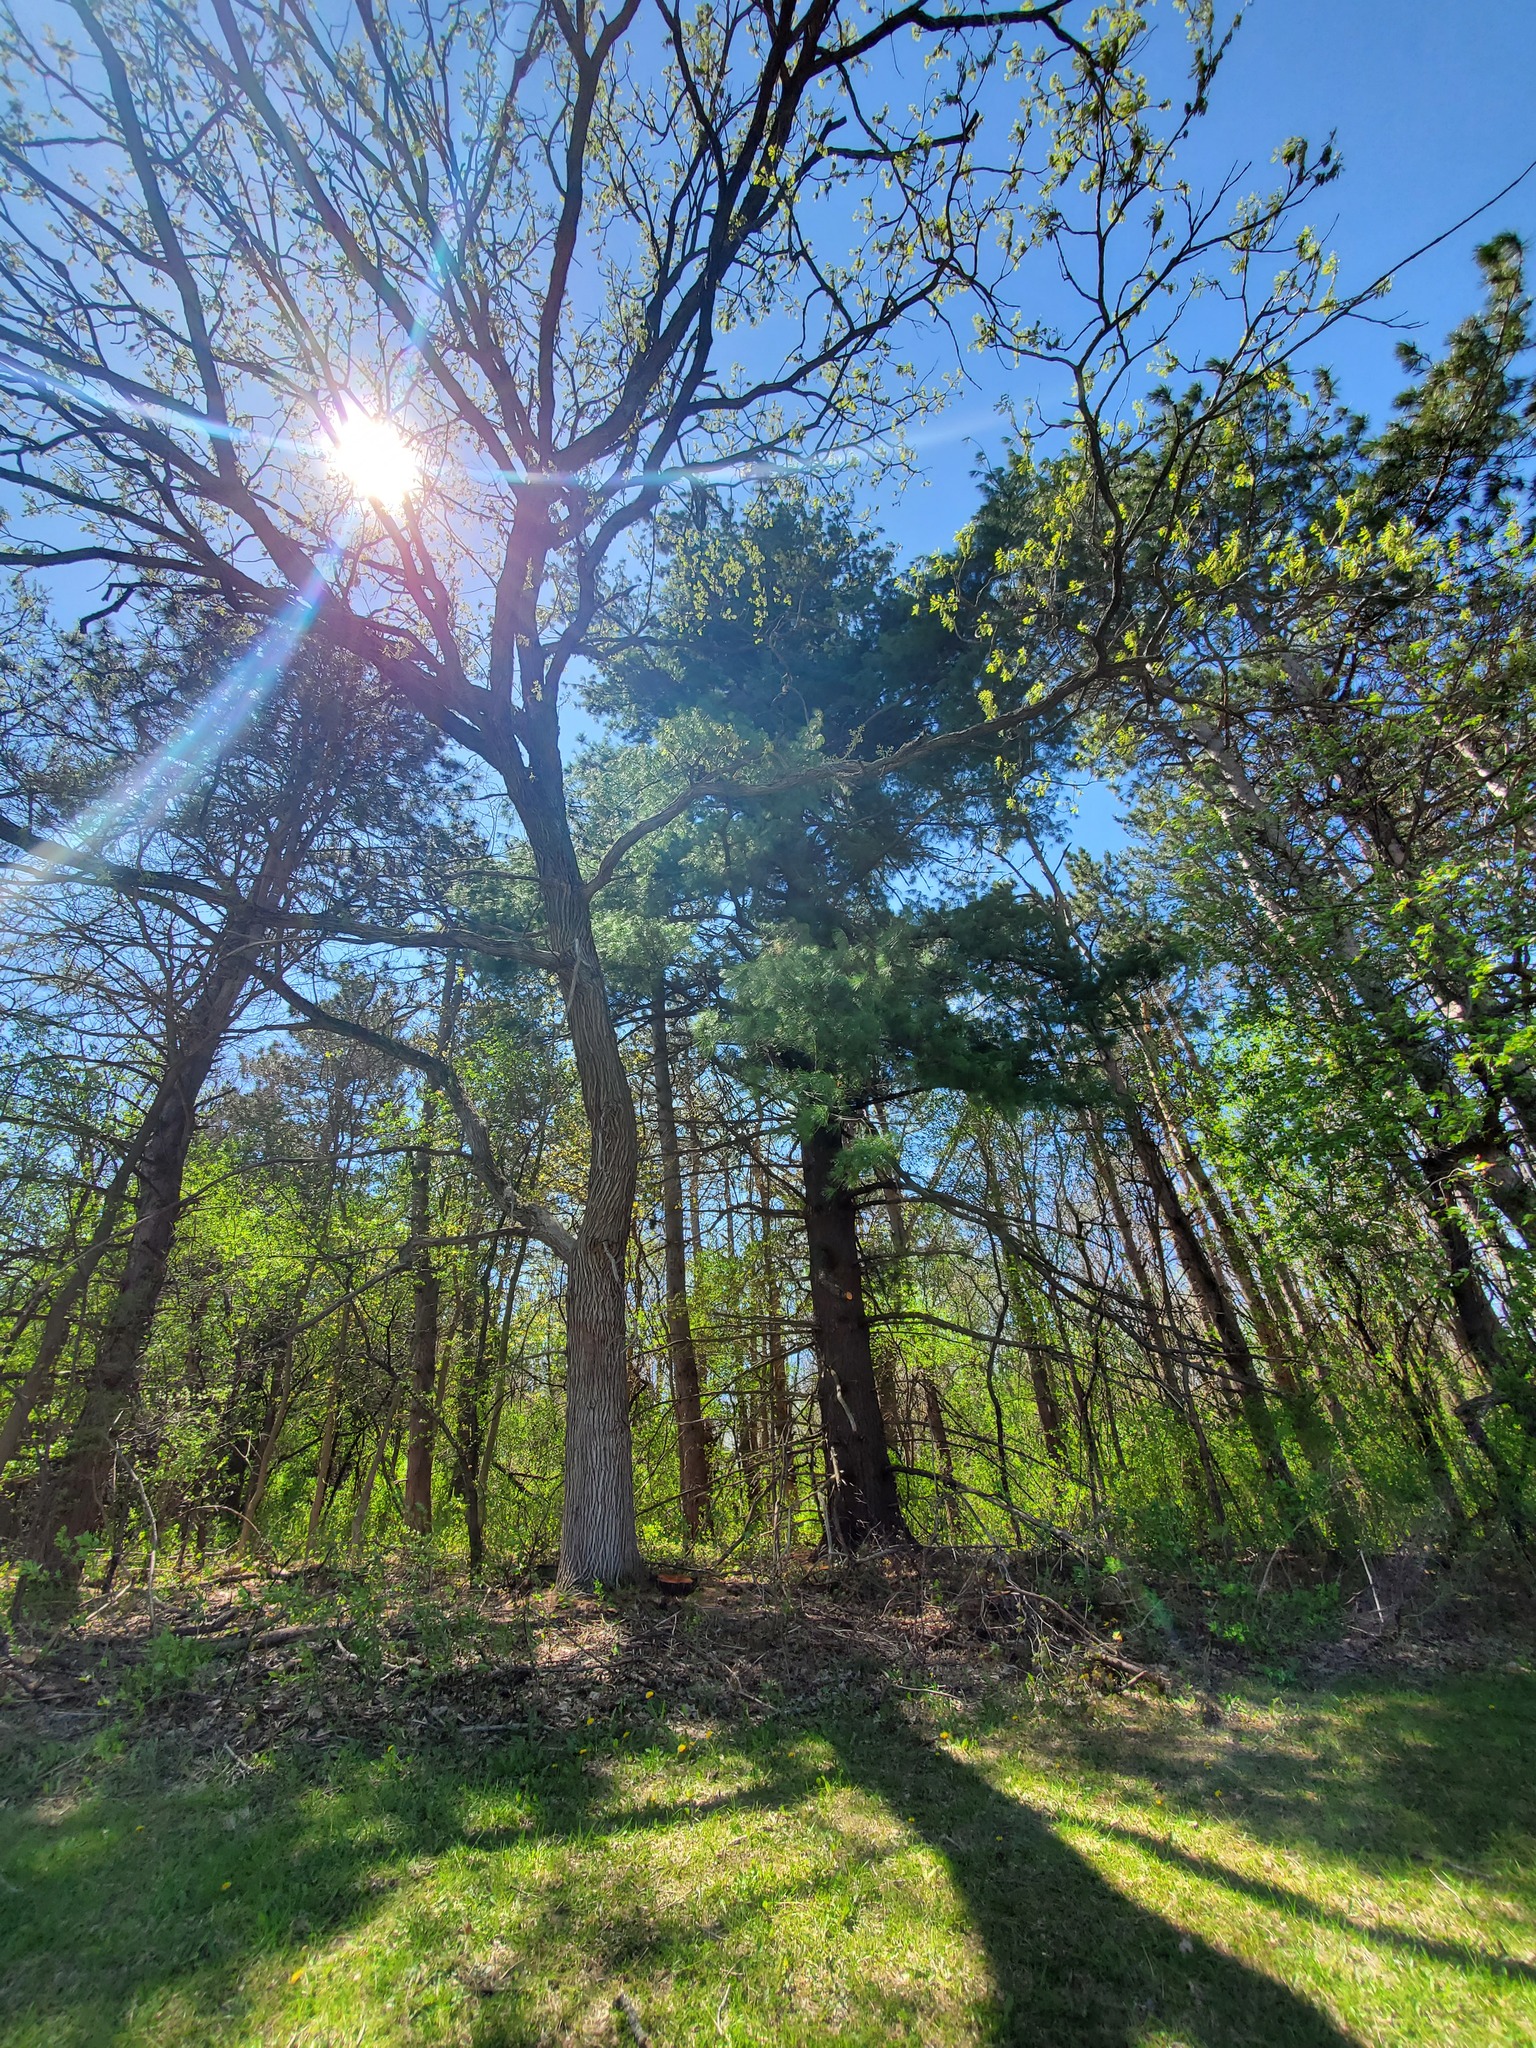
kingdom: Plantae
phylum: Tracheophyta
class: Pinopsida
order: Pinales
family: Pinaceae
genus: Pinus
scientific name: Pinus strobus
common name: Weymouth pine
